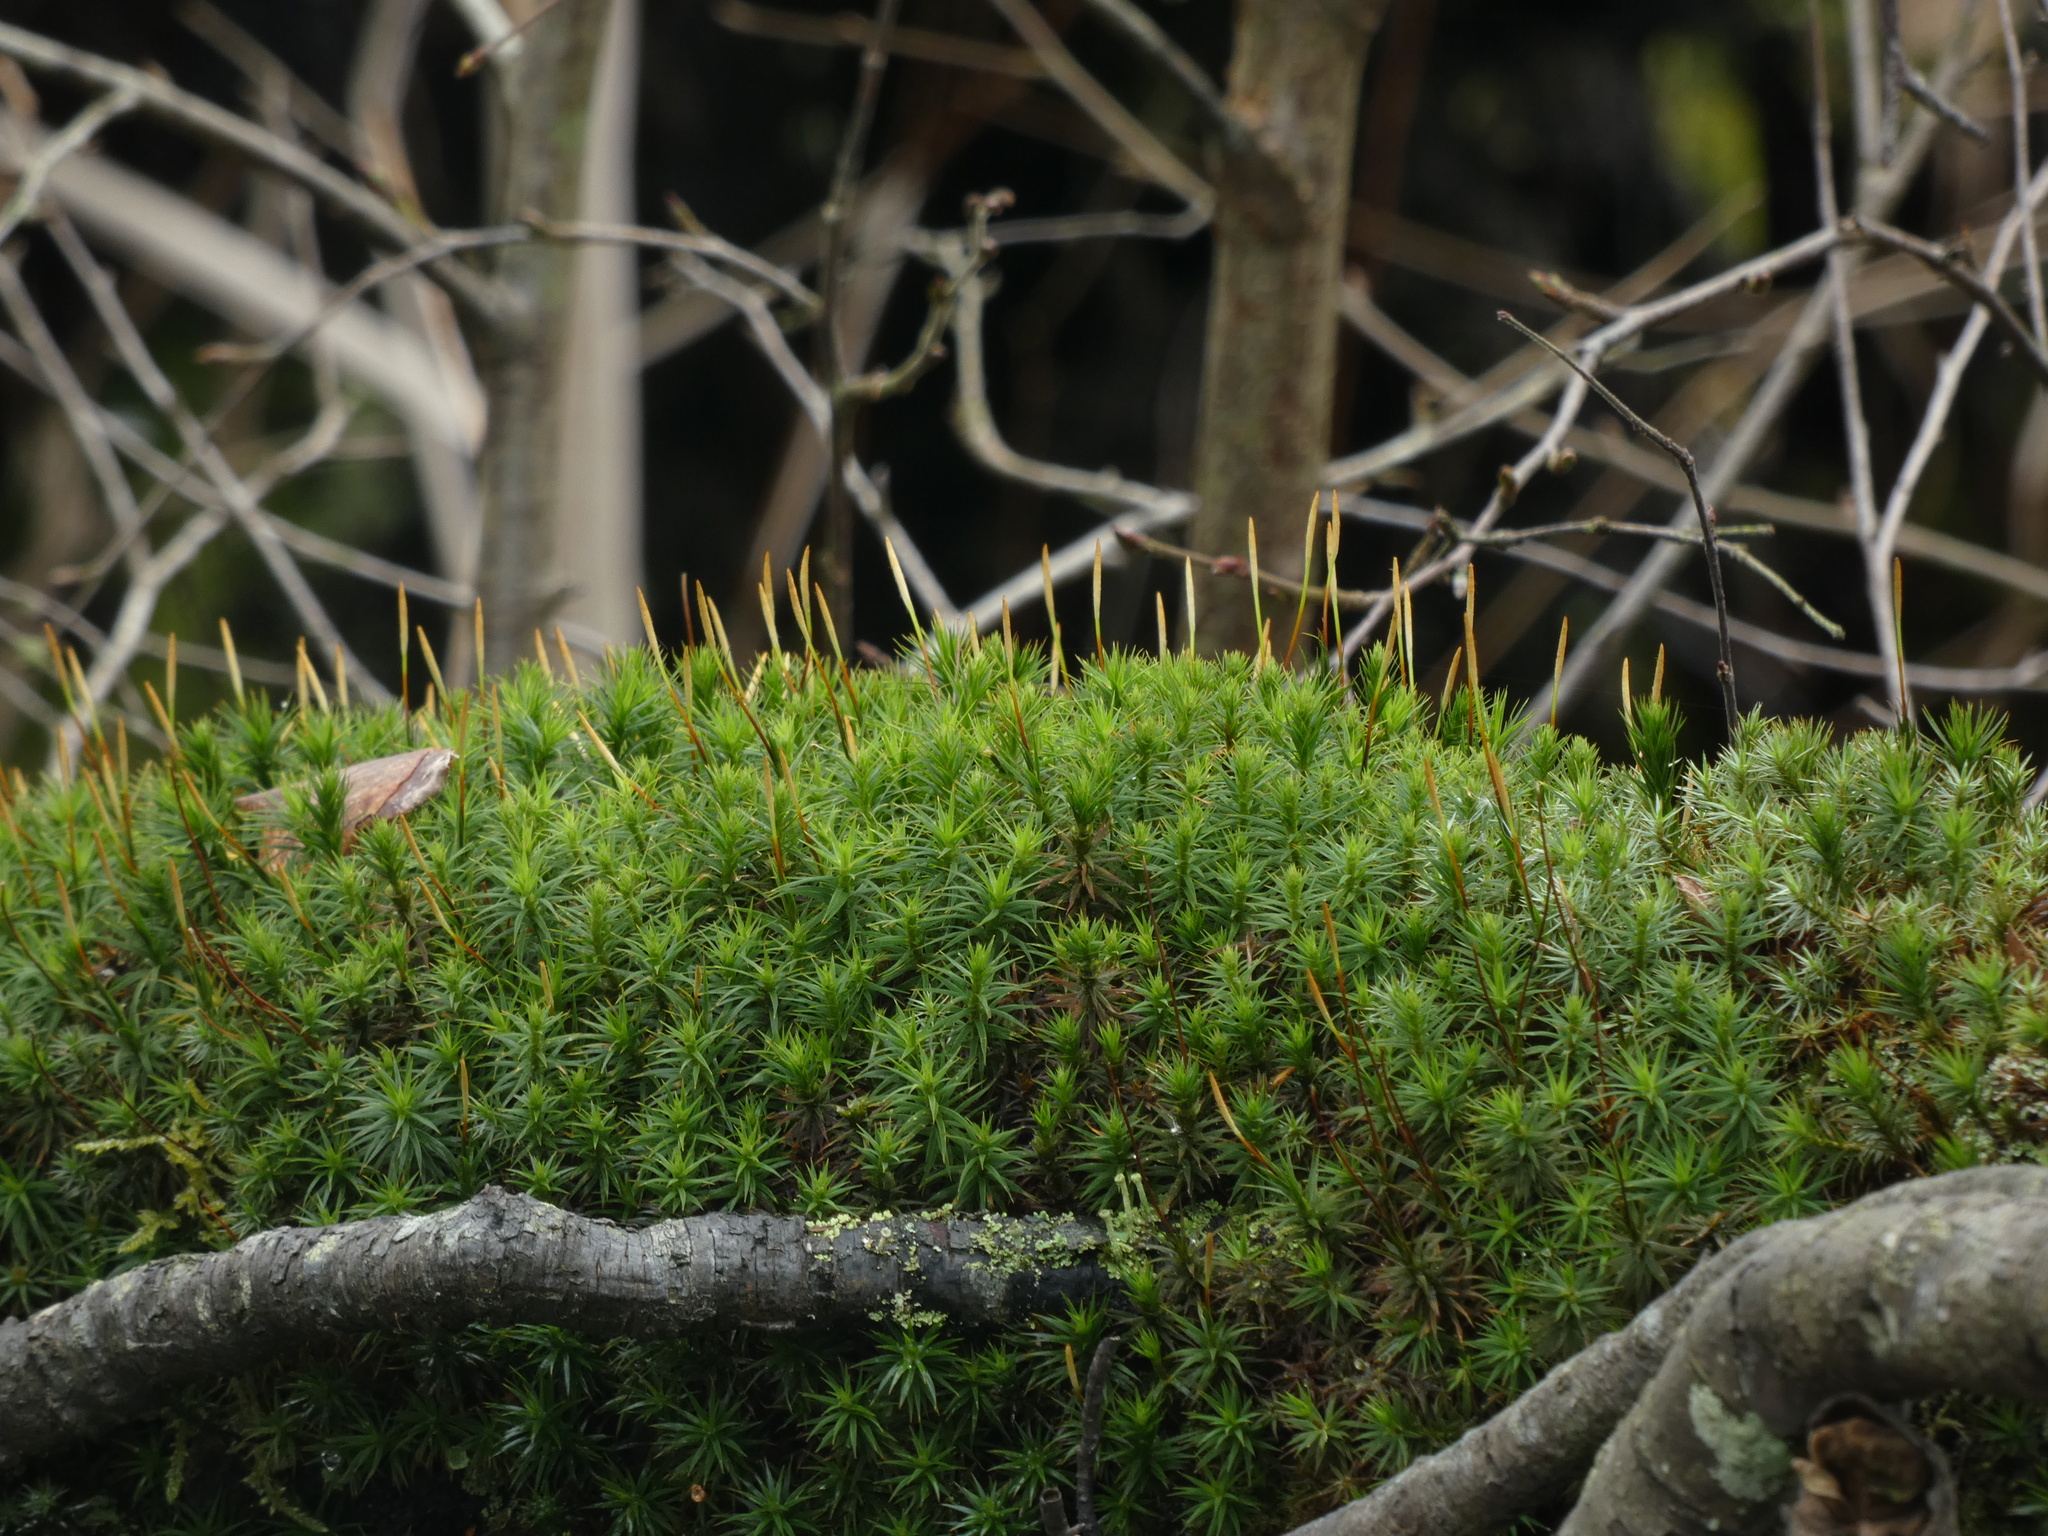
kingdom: Plantae
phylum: Bryophyta
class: Polytrichopsida
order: Polytrichales
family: Polytrichaceae
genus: Polytrichum
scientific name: Polytrichum formosum
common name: Bank haircap moss
